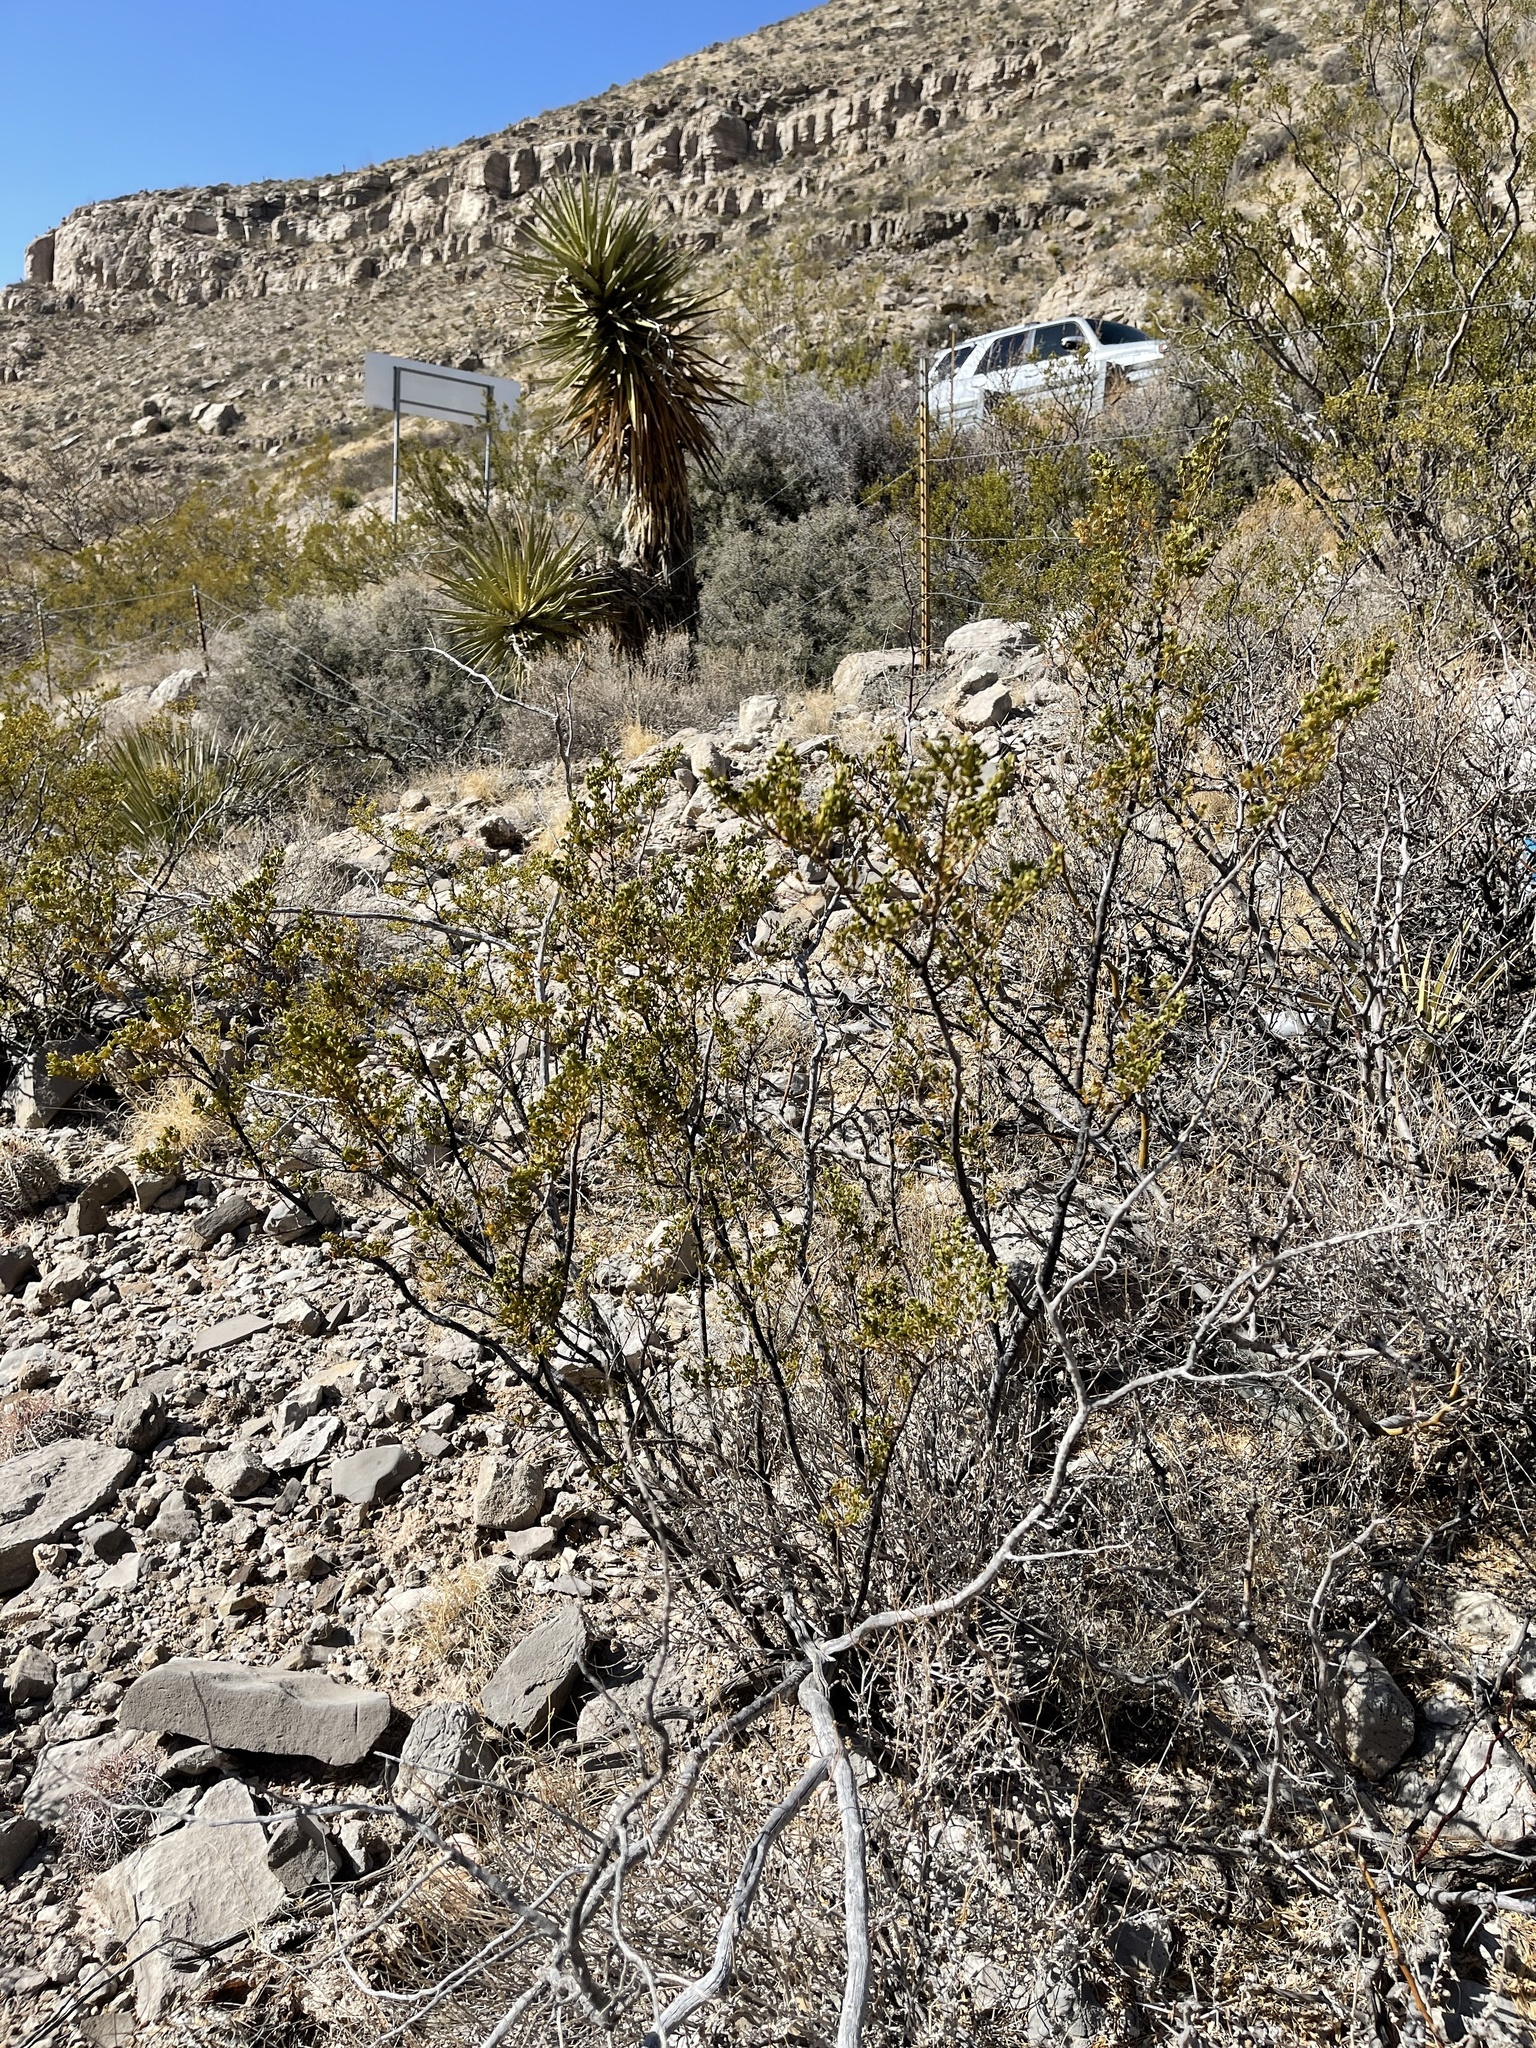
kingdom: Plantae
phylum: Tracheophyta
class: Magnoliopsida
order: Zygophyllales
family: Zygophyllaceae
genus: Larrea
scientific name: Larrea tridentata
